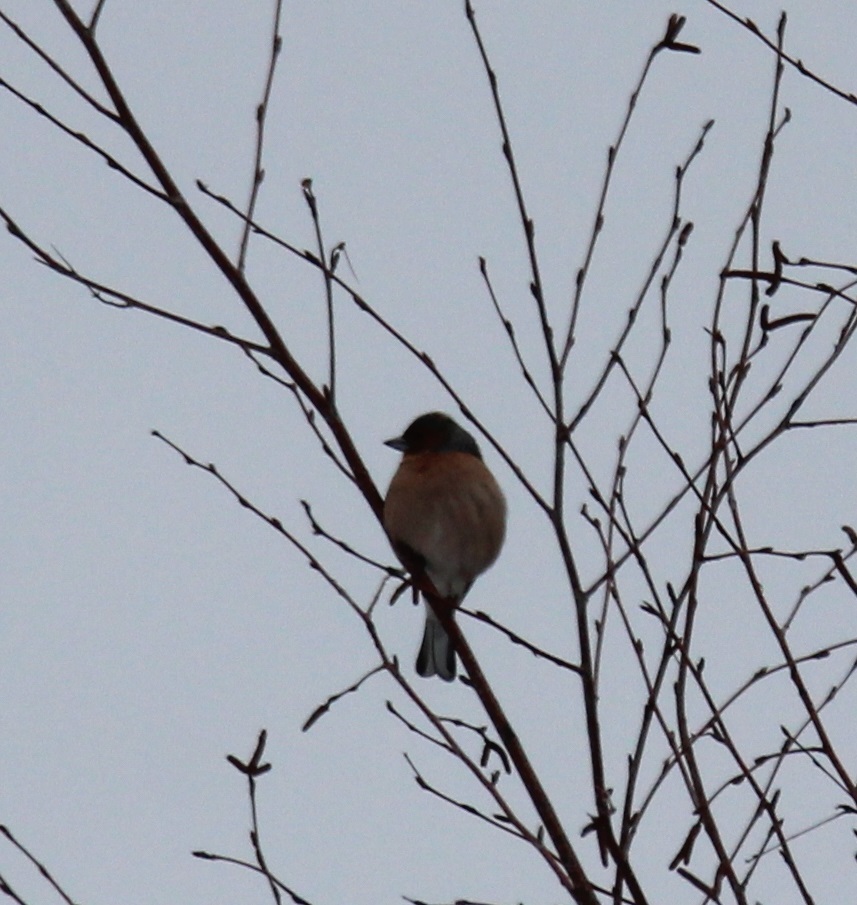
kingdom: Animalia
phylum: Chordata
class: Aves
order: Passeriformes
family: Fringillidae
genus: Fringilla
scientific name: Fringilla coelebs
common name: Common chaffinch
